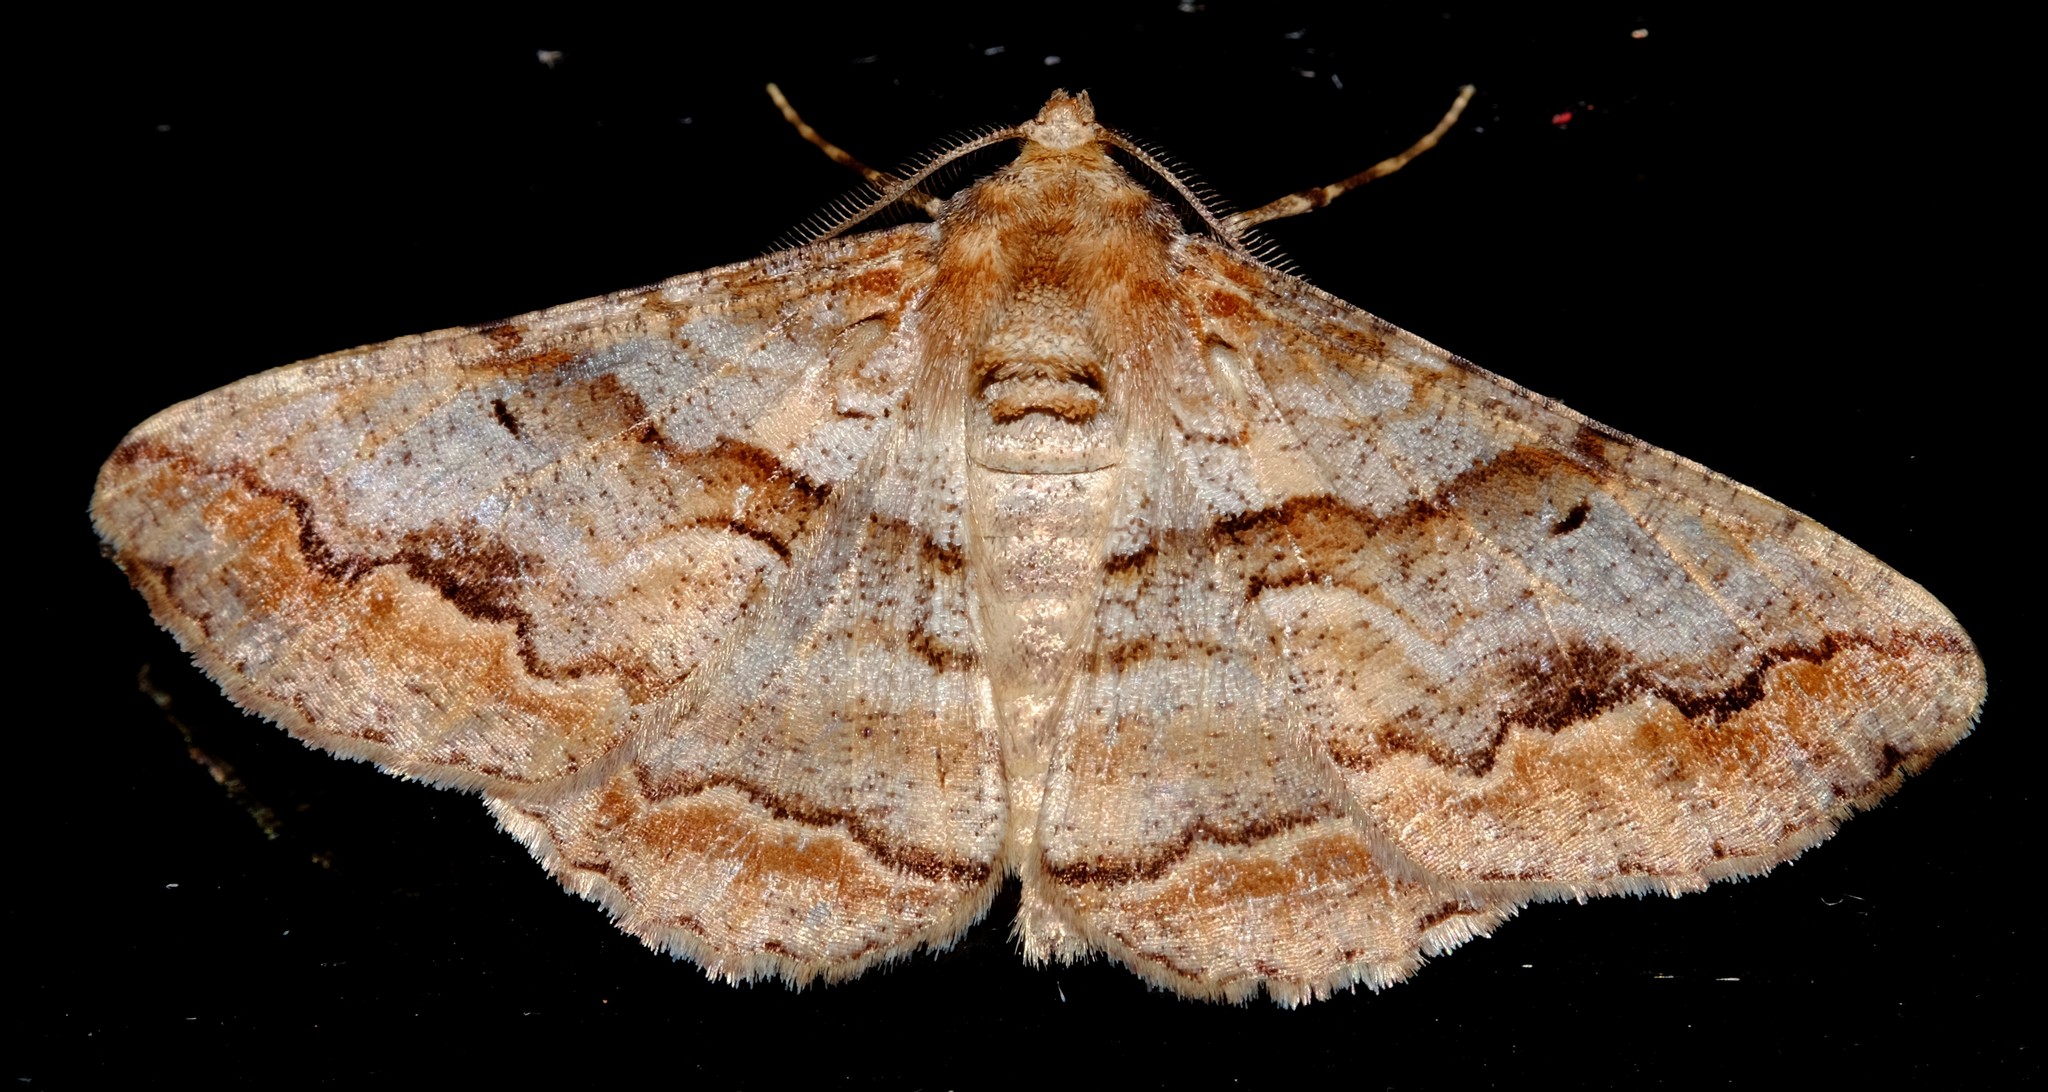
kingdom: Animalia
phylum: Arthropoda
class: Insecta
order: Lepidoptera
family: Geometridae
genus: Gastrinodes
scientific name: Gastrinodes bitaeniaria
